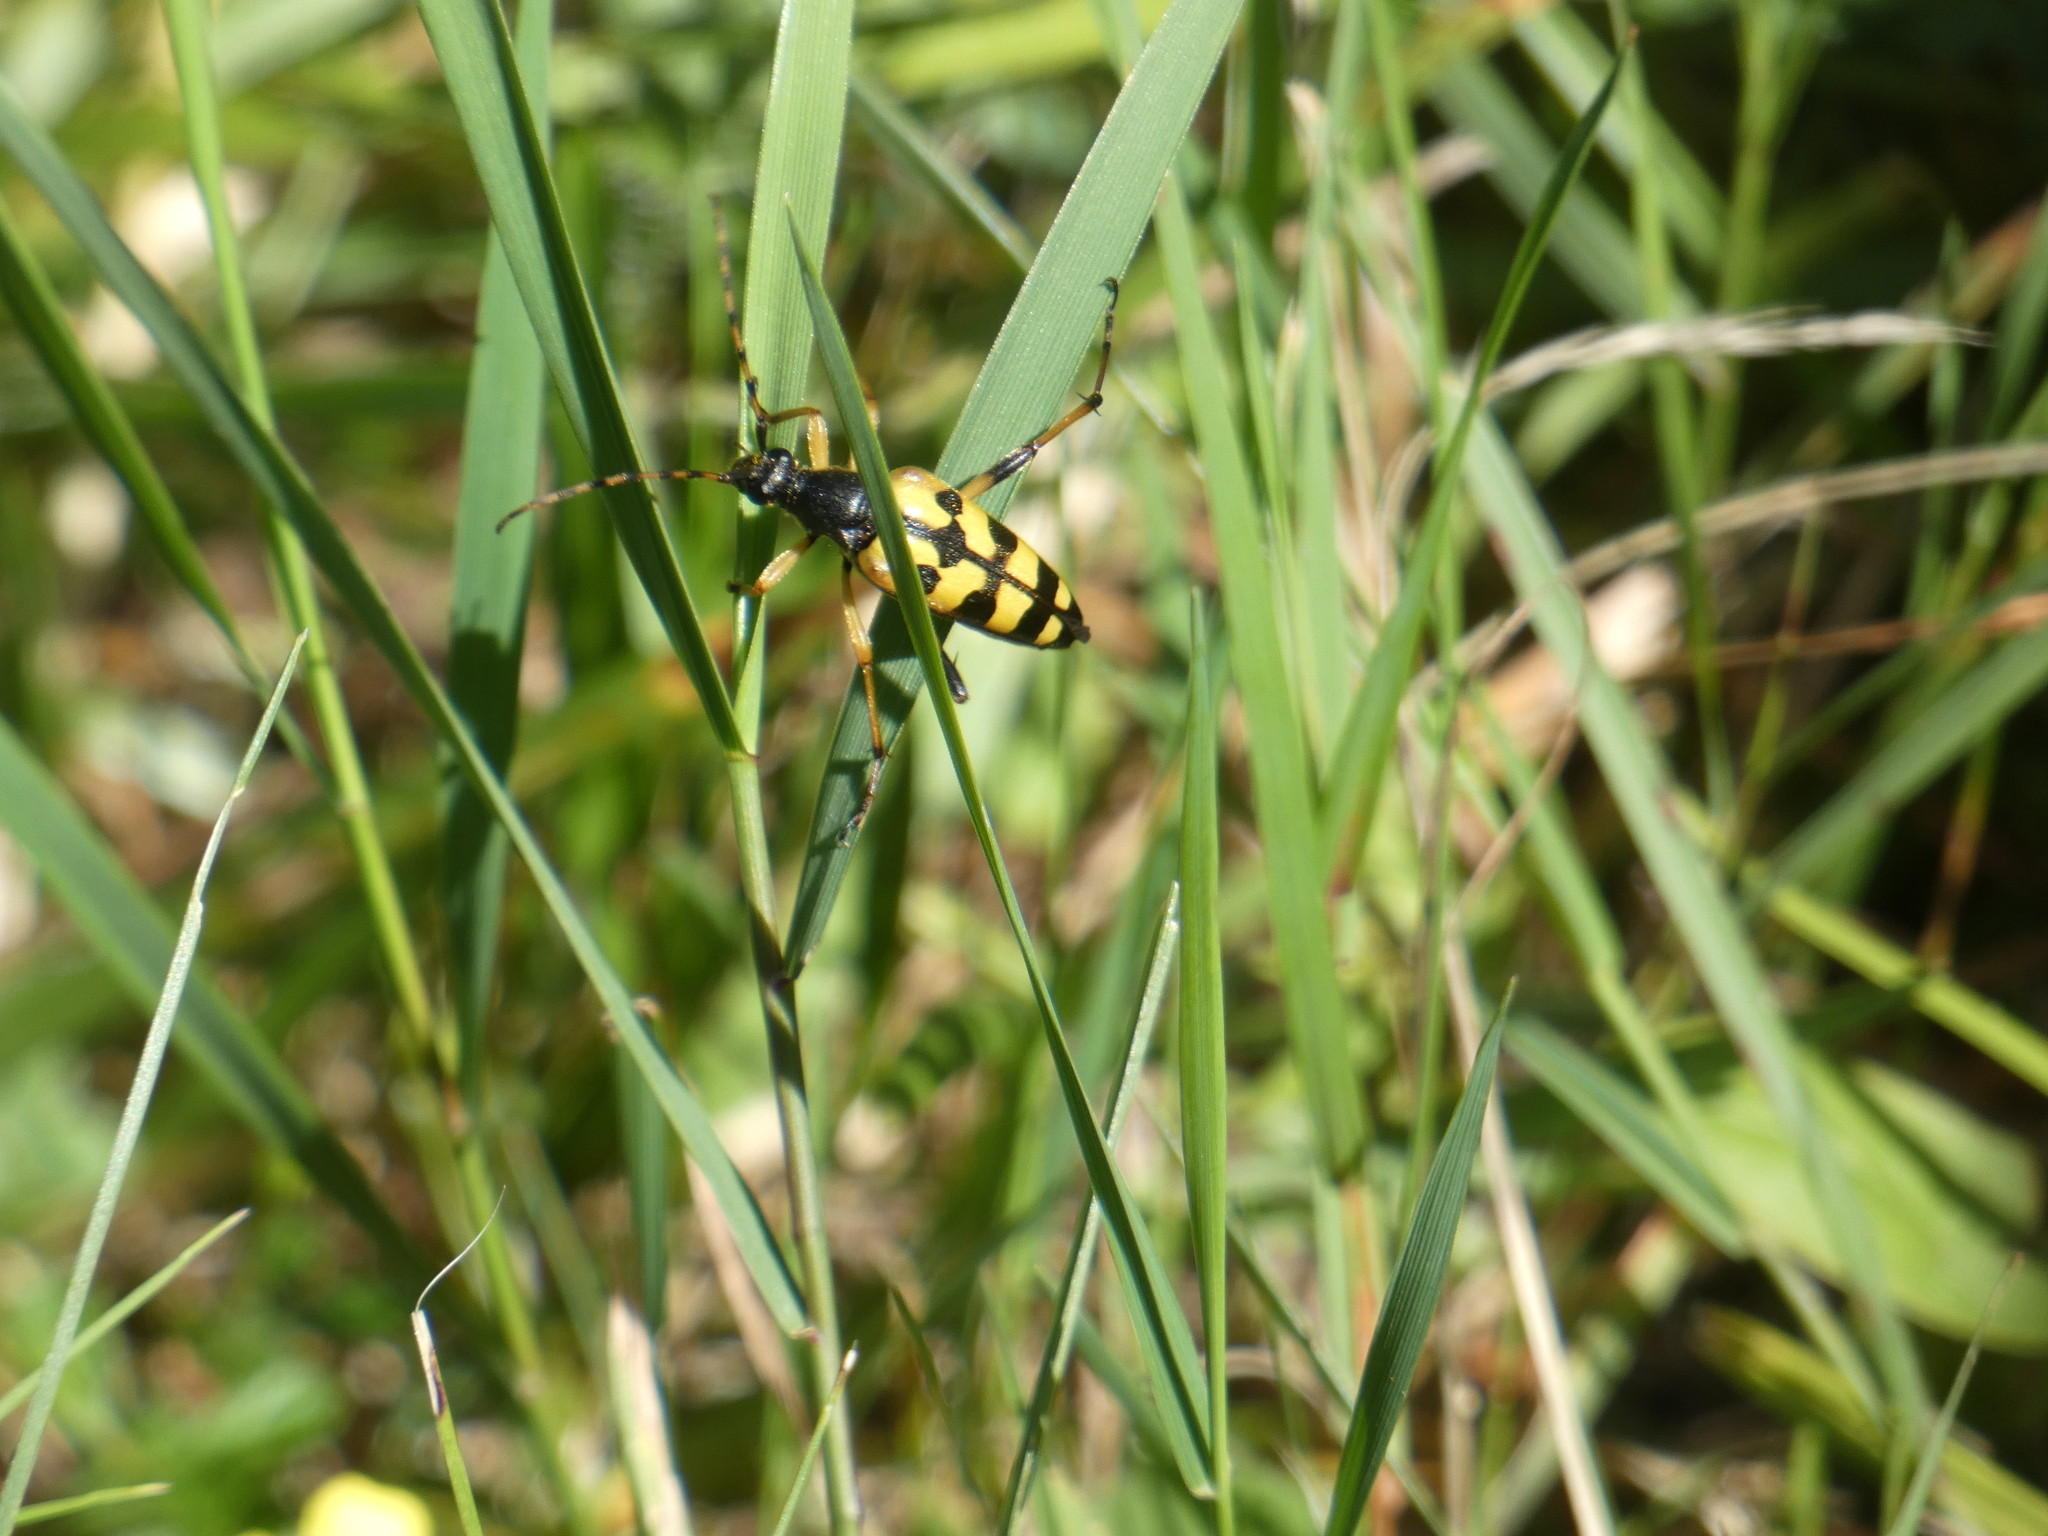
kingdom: Animalia
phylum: Arthropoda
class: Insecta
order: Coleoptera
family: Cerambycidae
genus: Rutpela
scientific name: Rutpela maculata
